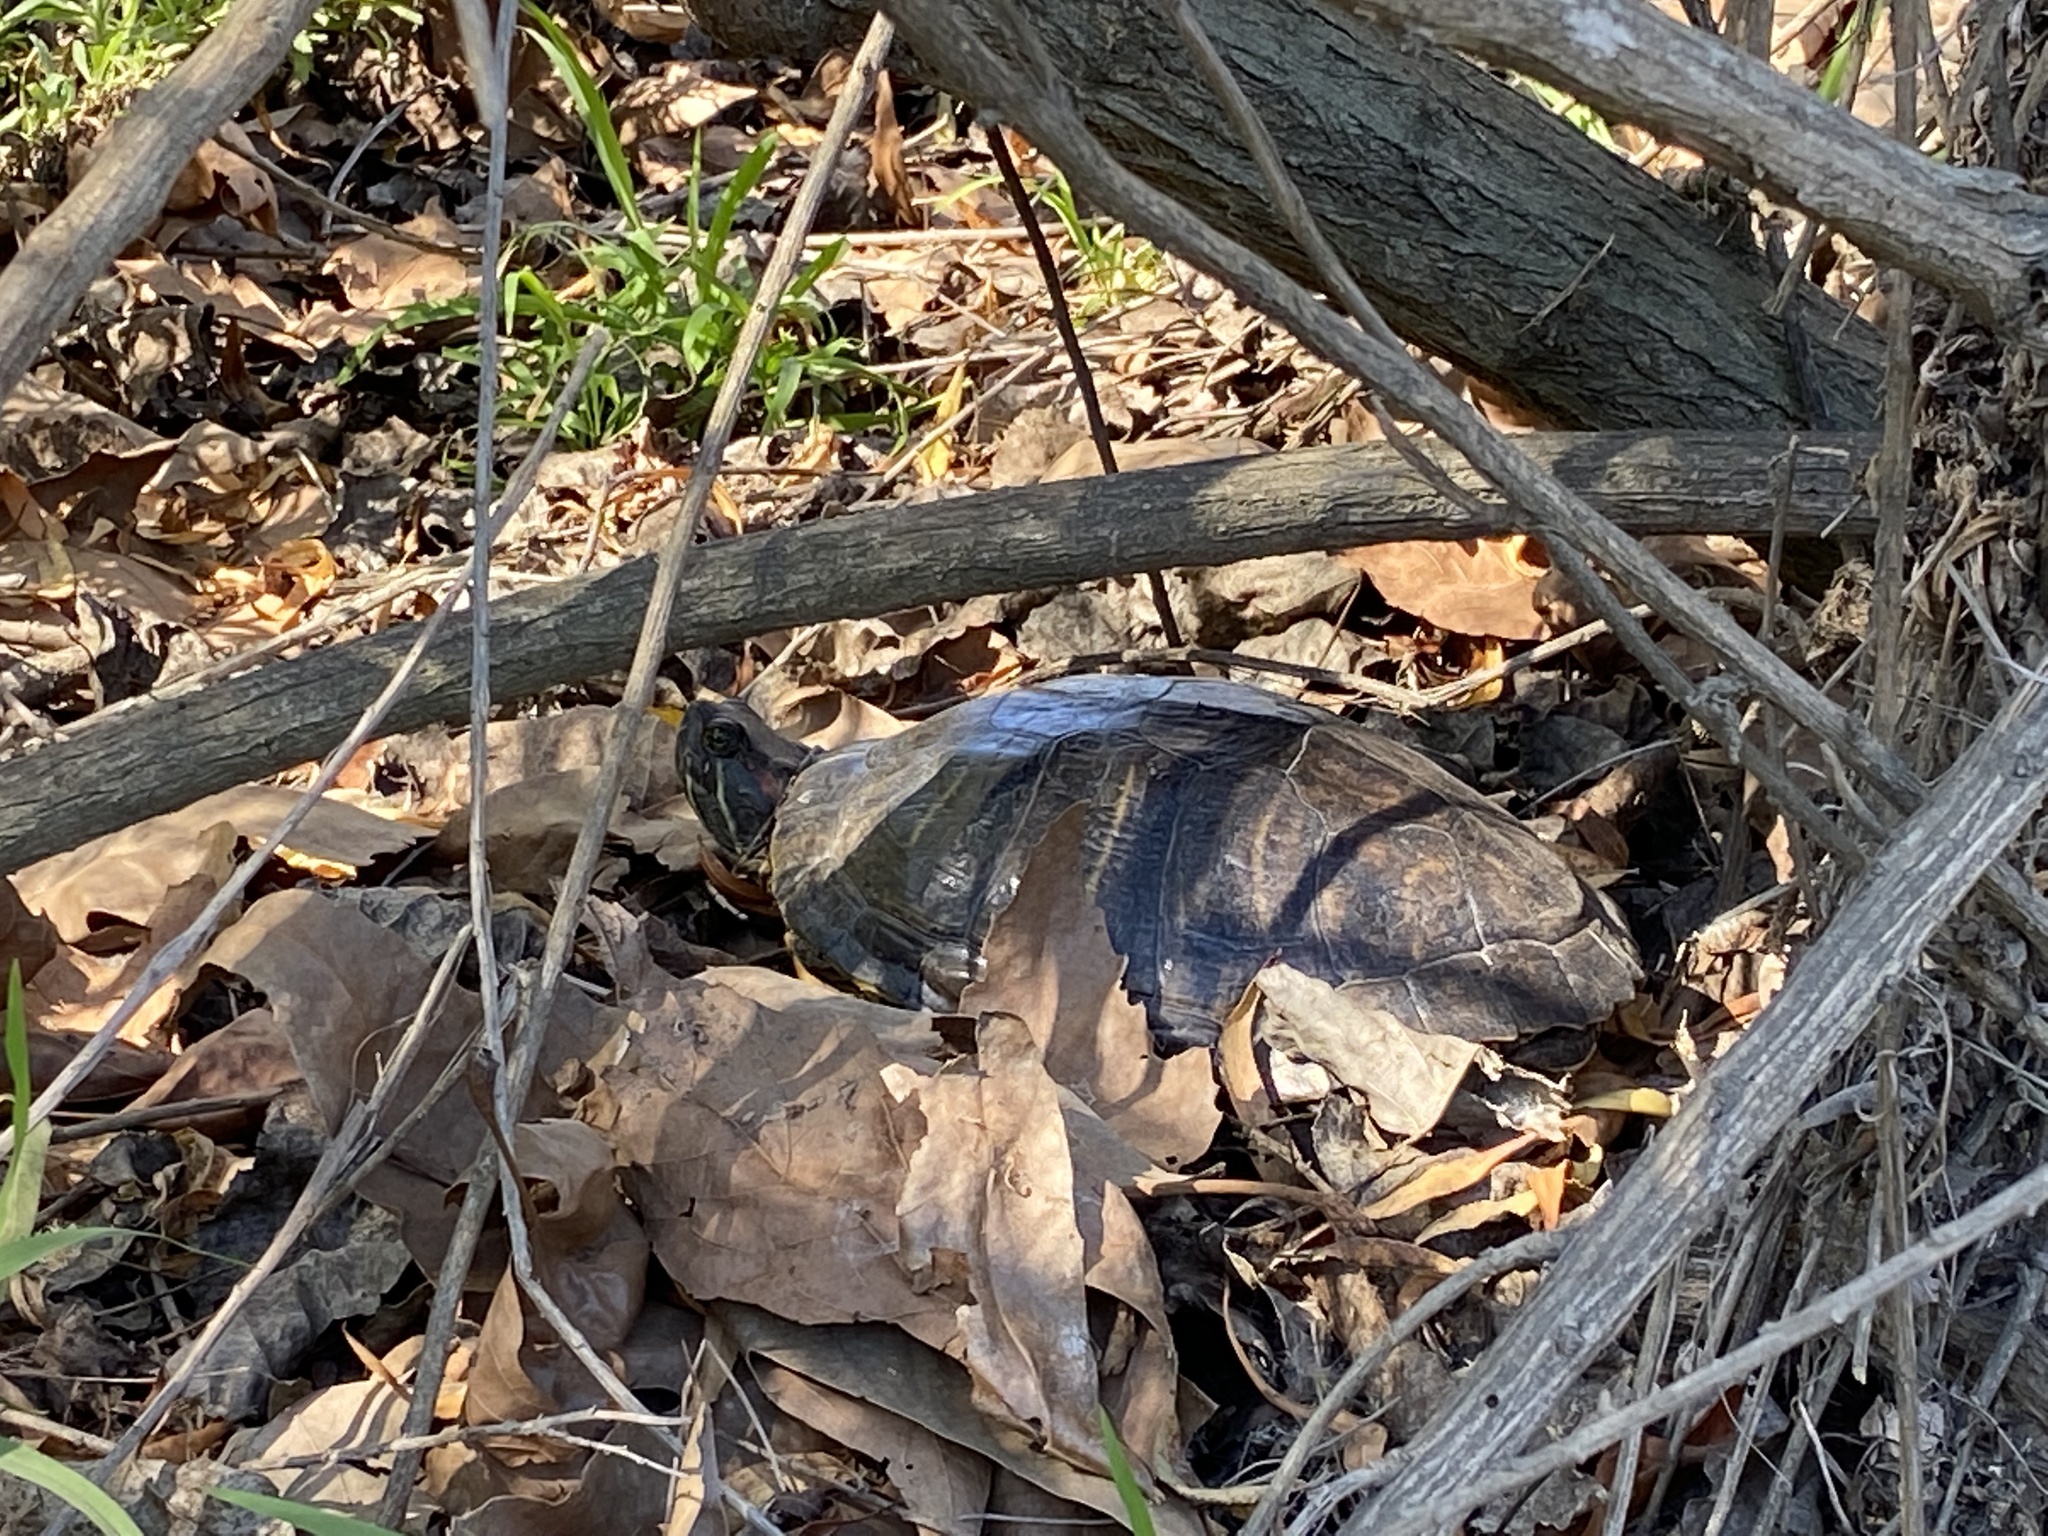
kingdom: Animalia
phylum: Chordata
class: Testudines
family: Emydidae
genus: Trachemys
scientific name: Trachemys scripta
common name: Slider
